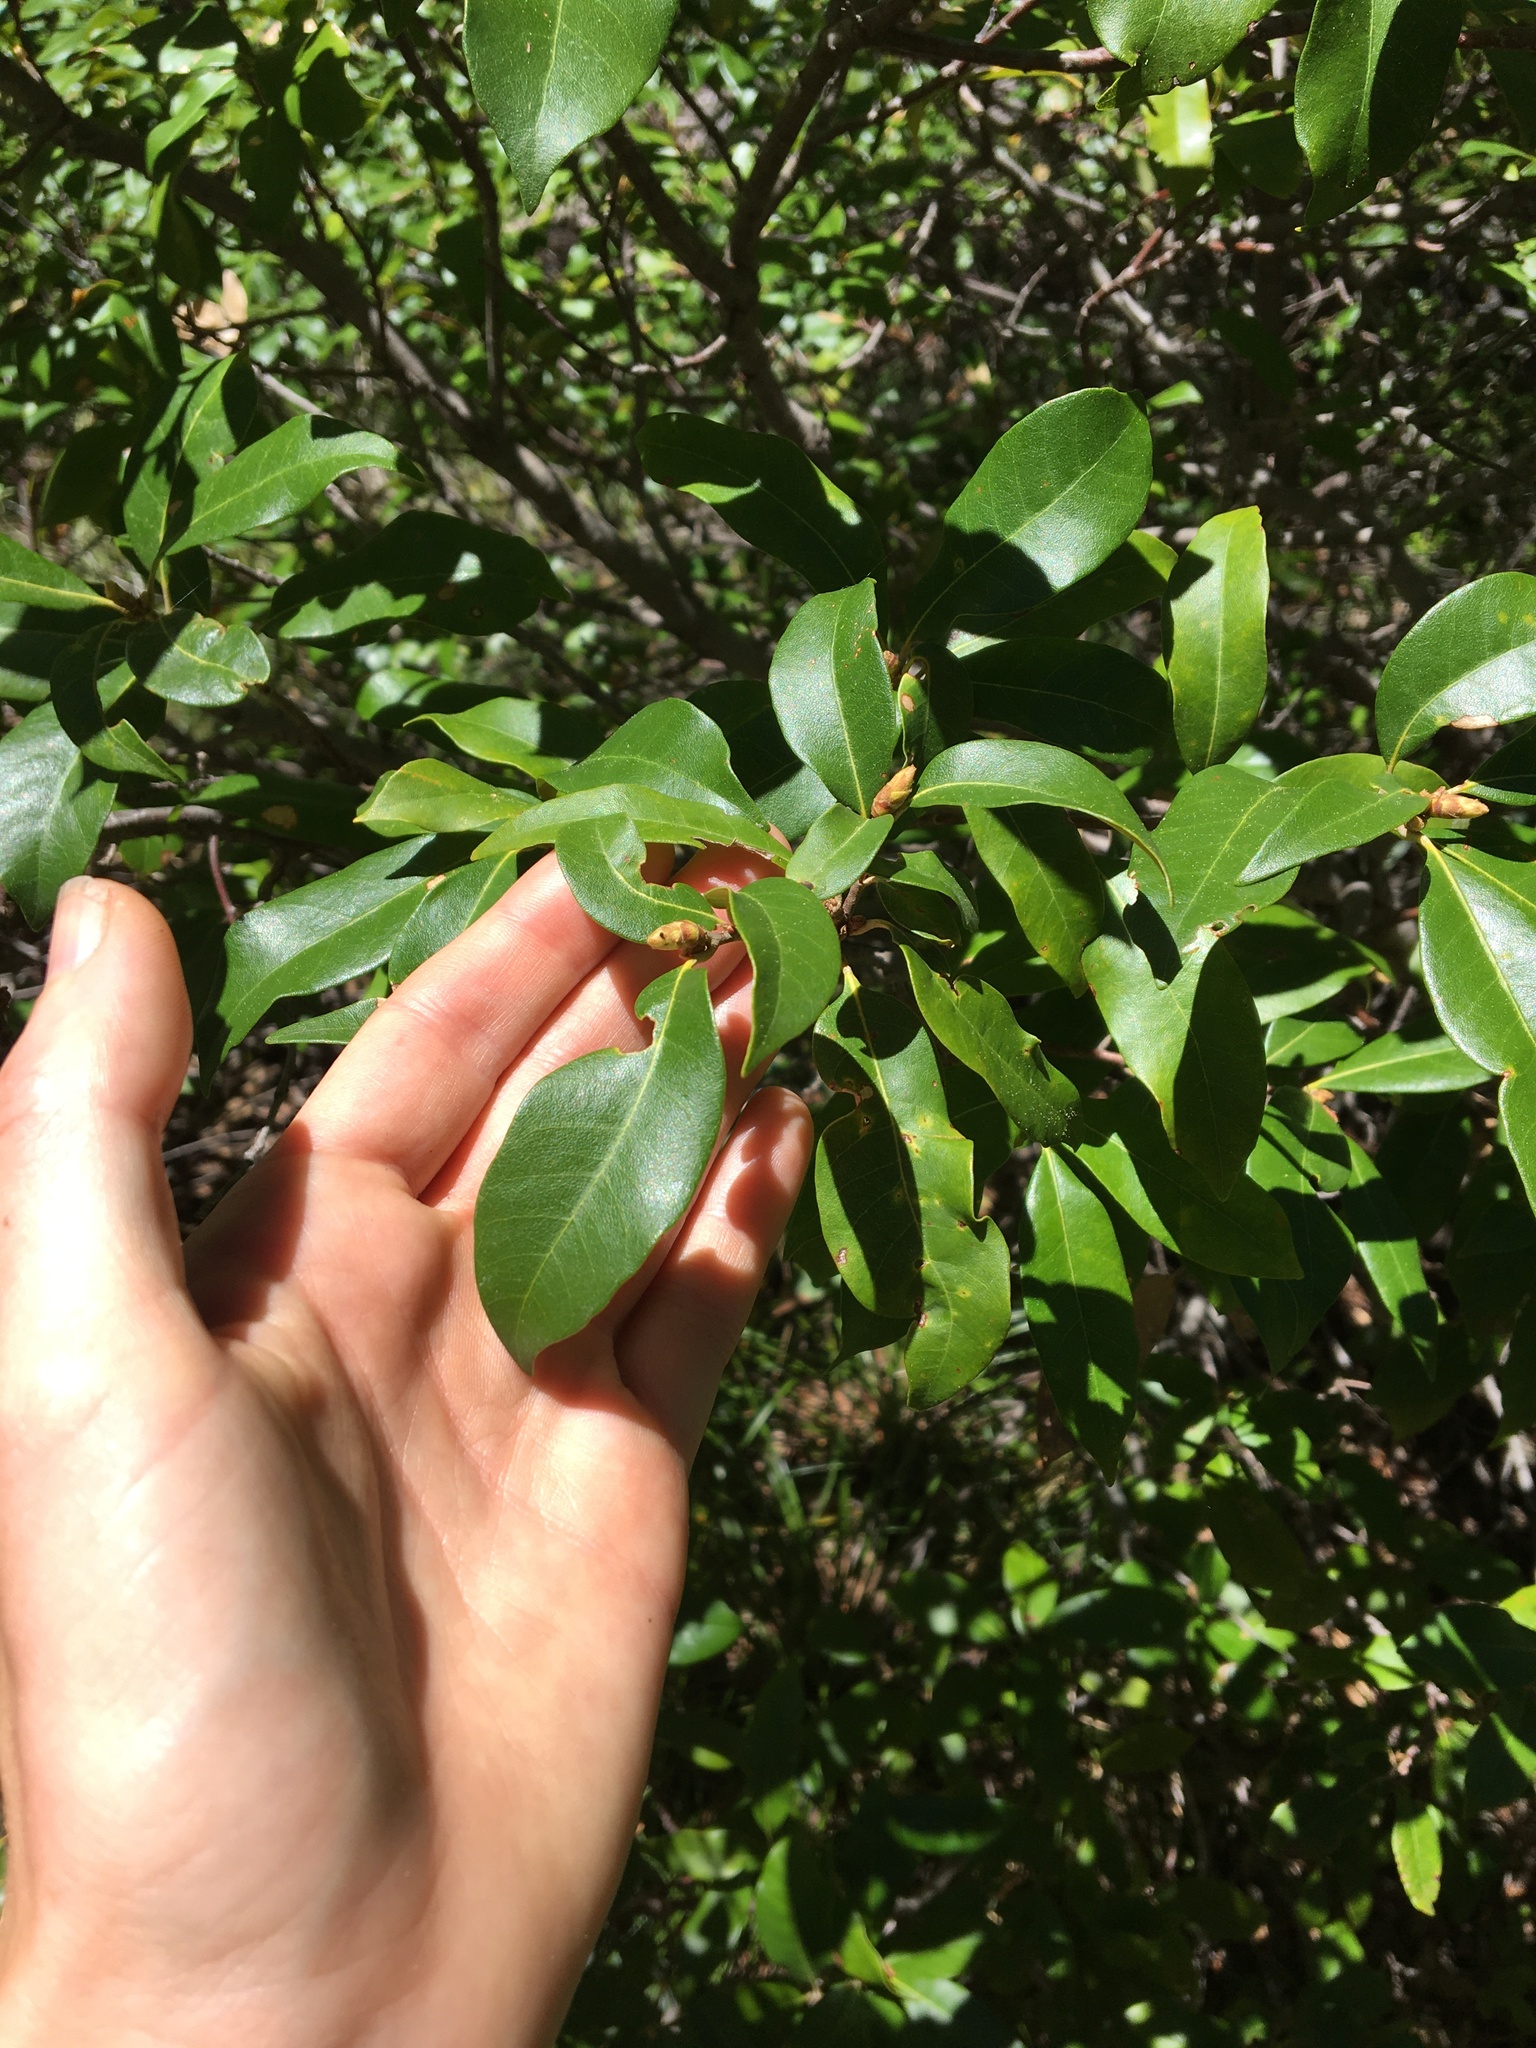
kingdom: Plantae
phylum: Tracheophyta
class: Magnoliopsida
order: Fagales
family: Fagaceae
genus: Chrysolepis
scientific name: Chrysolepis chrysophylla
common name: Giant chinquapin
